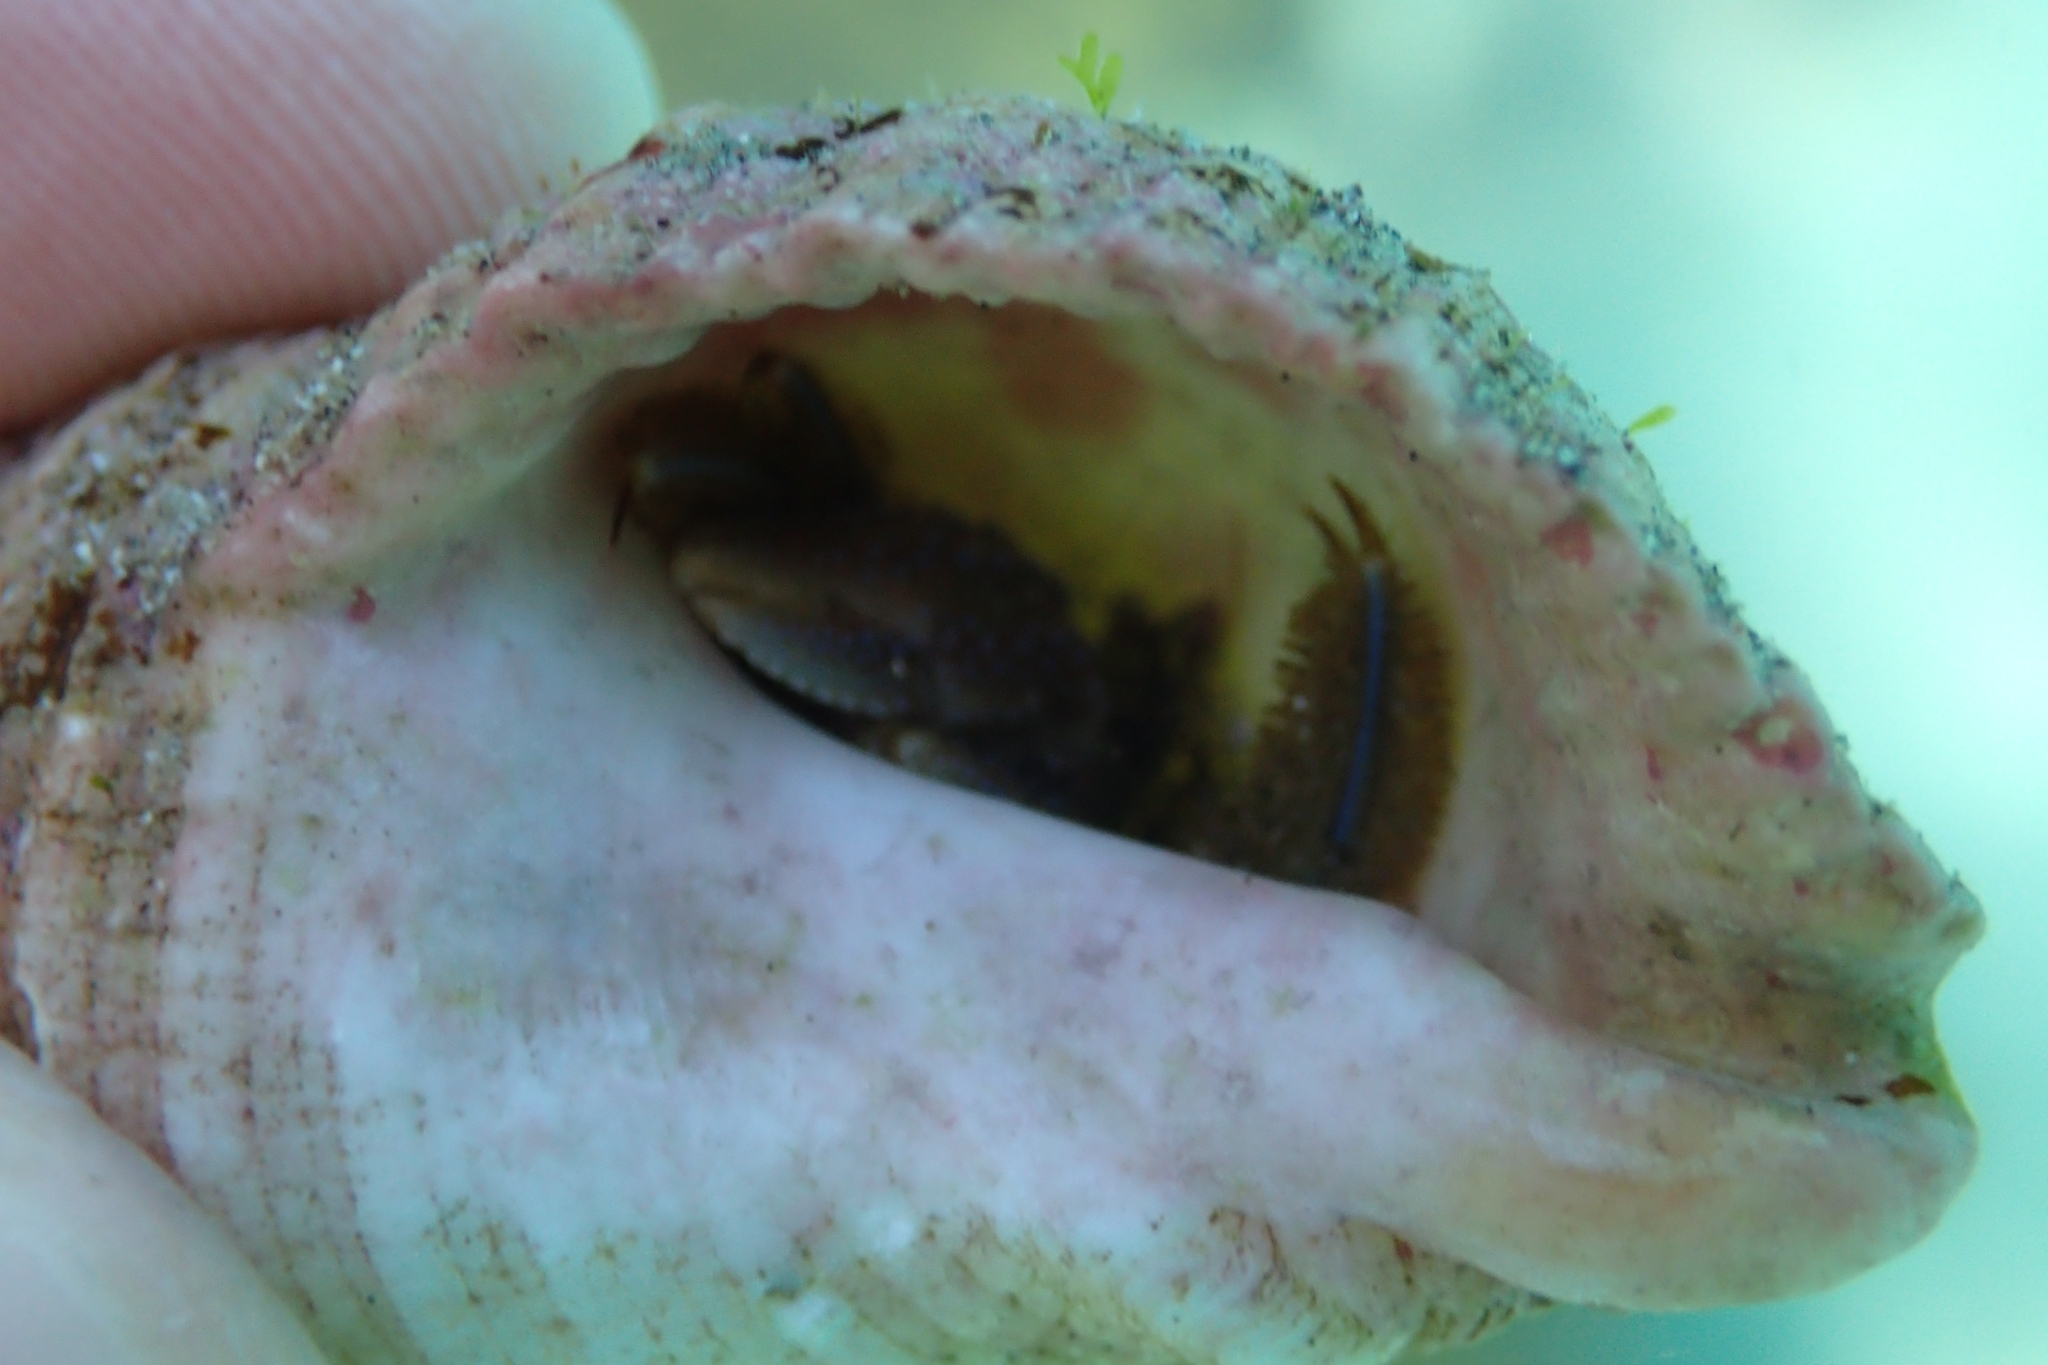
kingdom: Animalia
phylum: Arthropoda
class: Malacostraca
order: Decapoda
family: Paguridae
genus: Pagurus
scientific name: Pagurus novizealandiae
